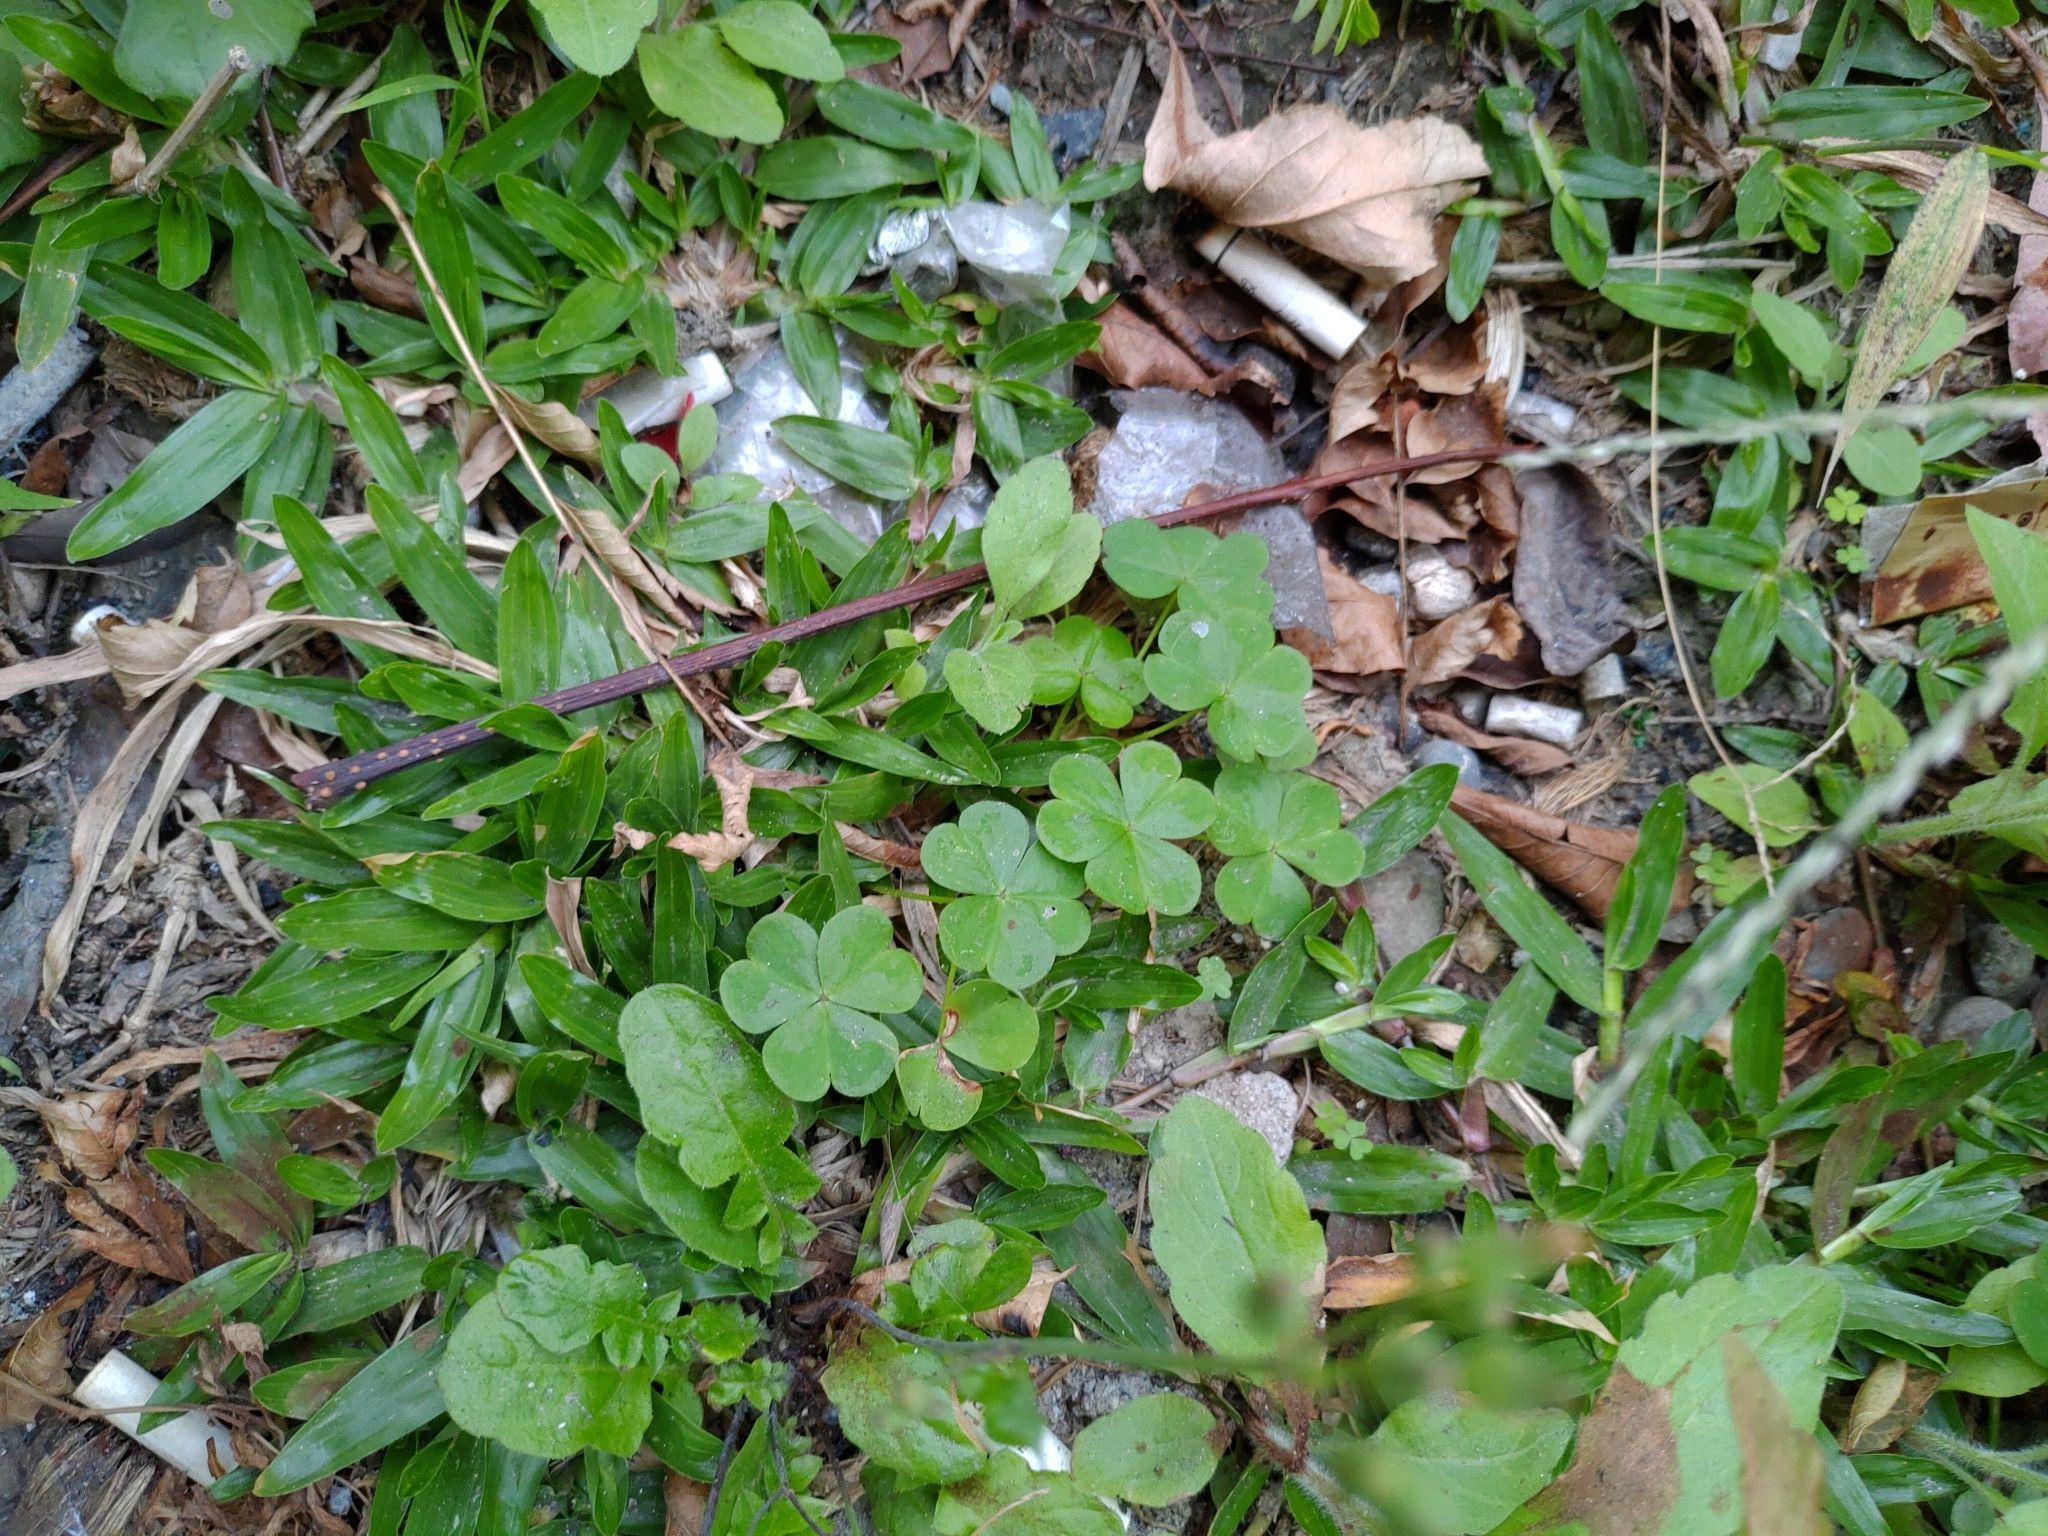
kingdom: Plantae
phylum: Tracheophyta
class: Magnoliopsida
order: Oxalidales
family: Oxalidaceae
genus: Oxalis
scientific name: Oxalis debilis
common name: Large-flowered pink-sorrel
